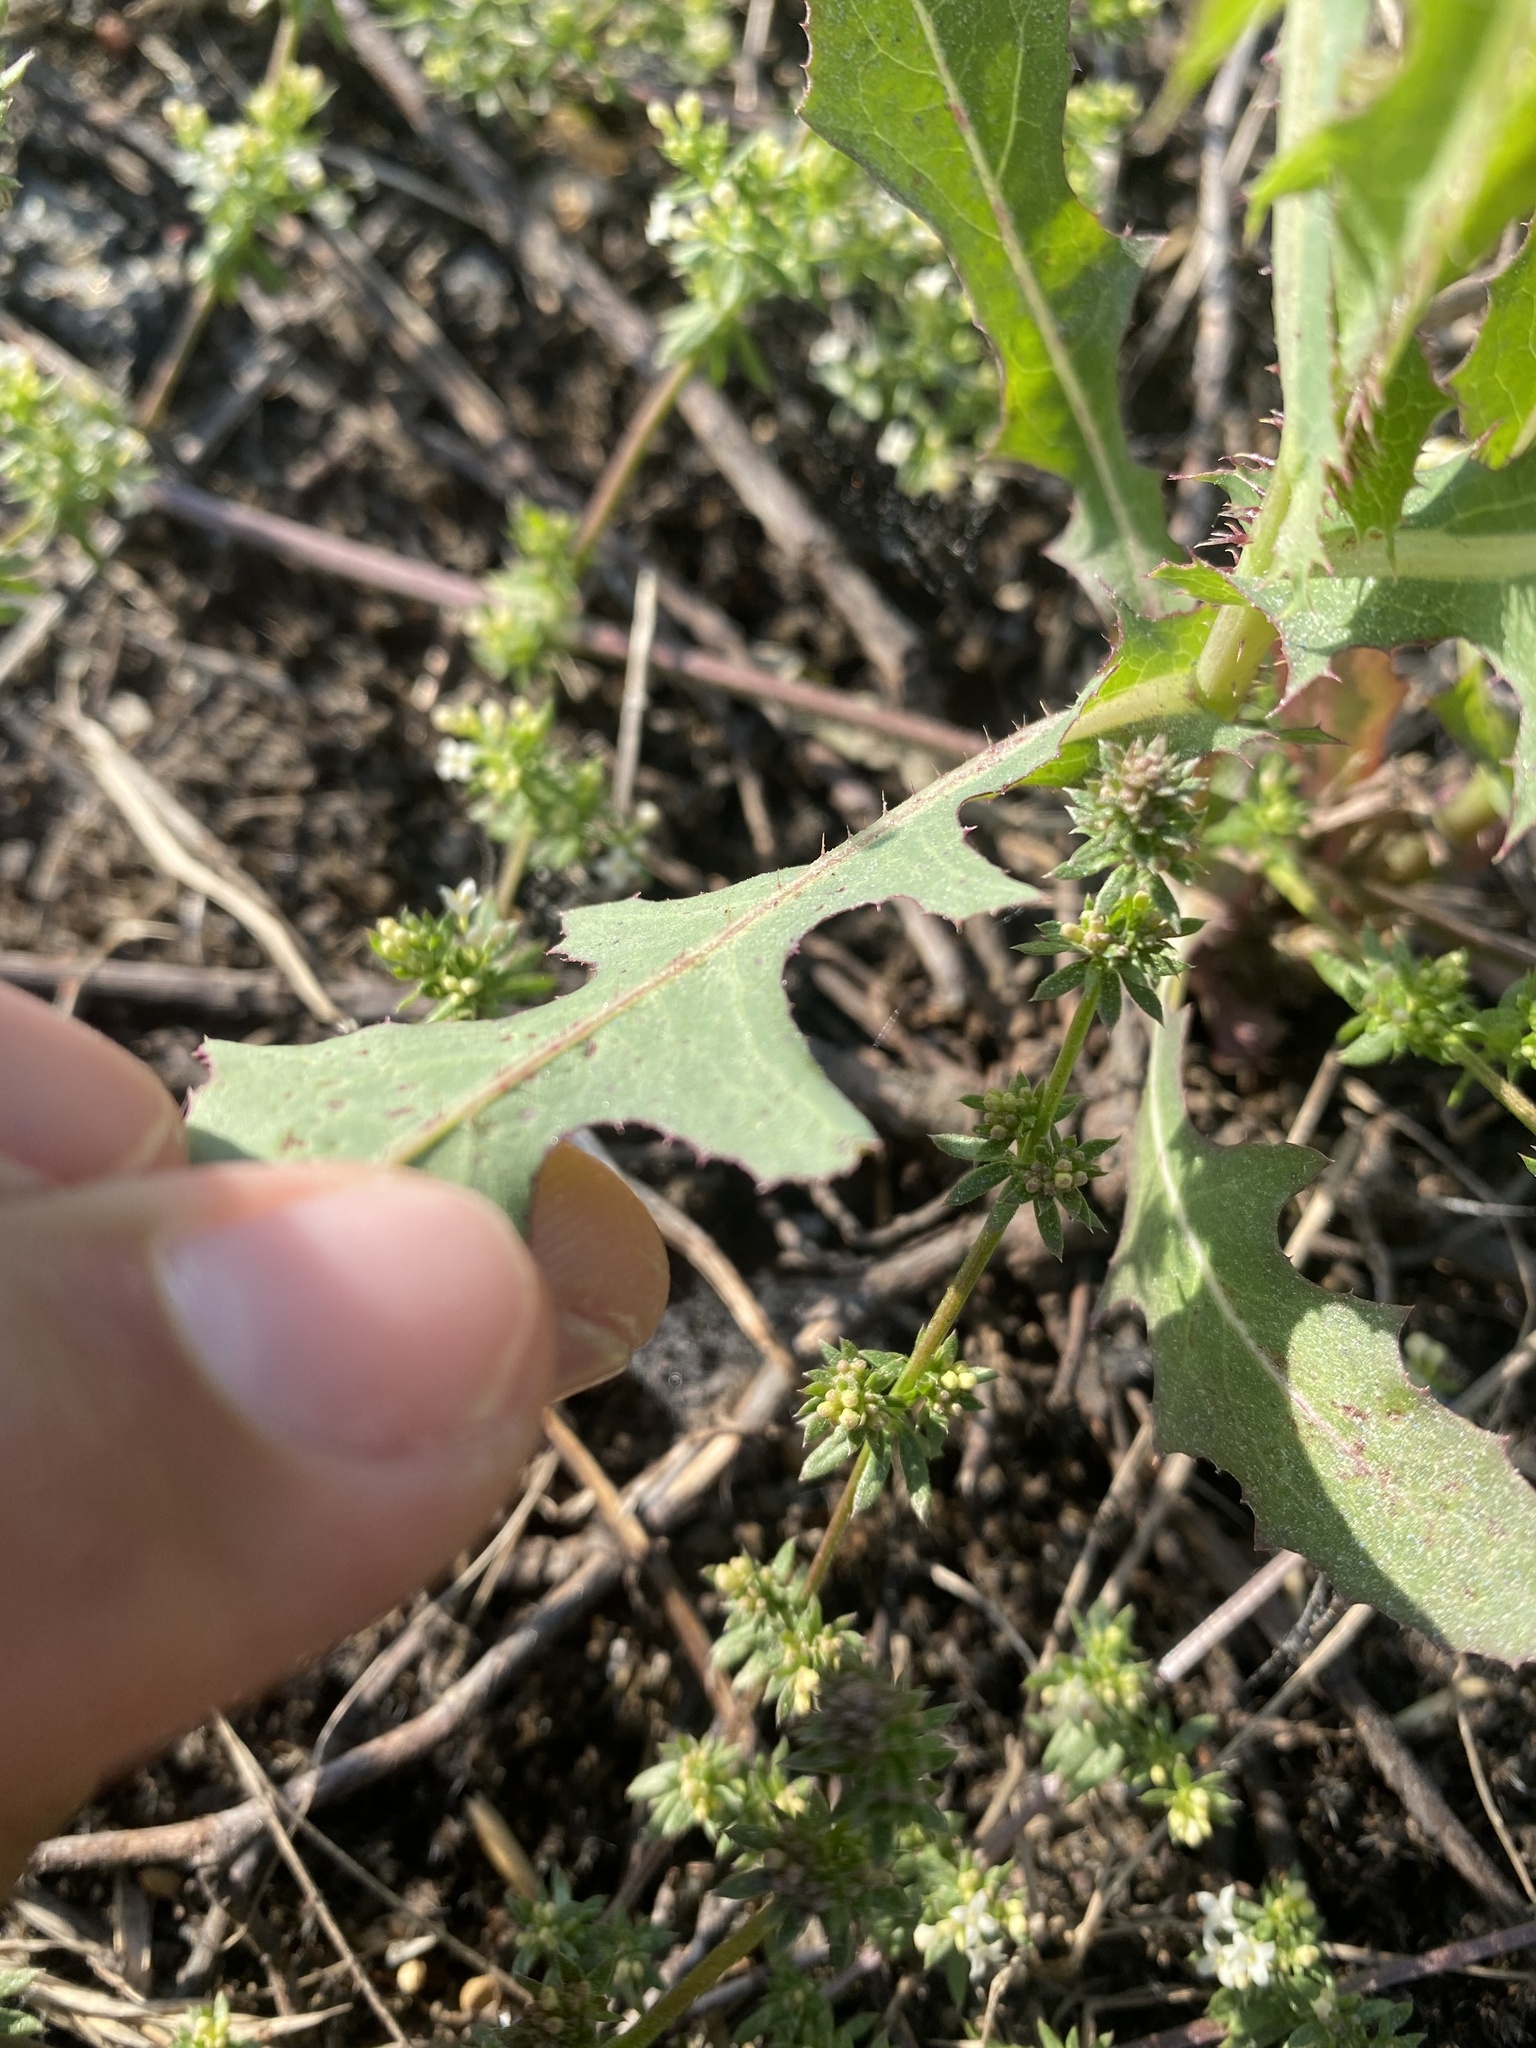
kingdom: Plantae
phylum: Tracheophyta
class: Magnoliopsida
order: Asterales
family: Asteraceae
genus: Lactuca
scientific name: Lactuca serriola
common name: Prickly lettuce
